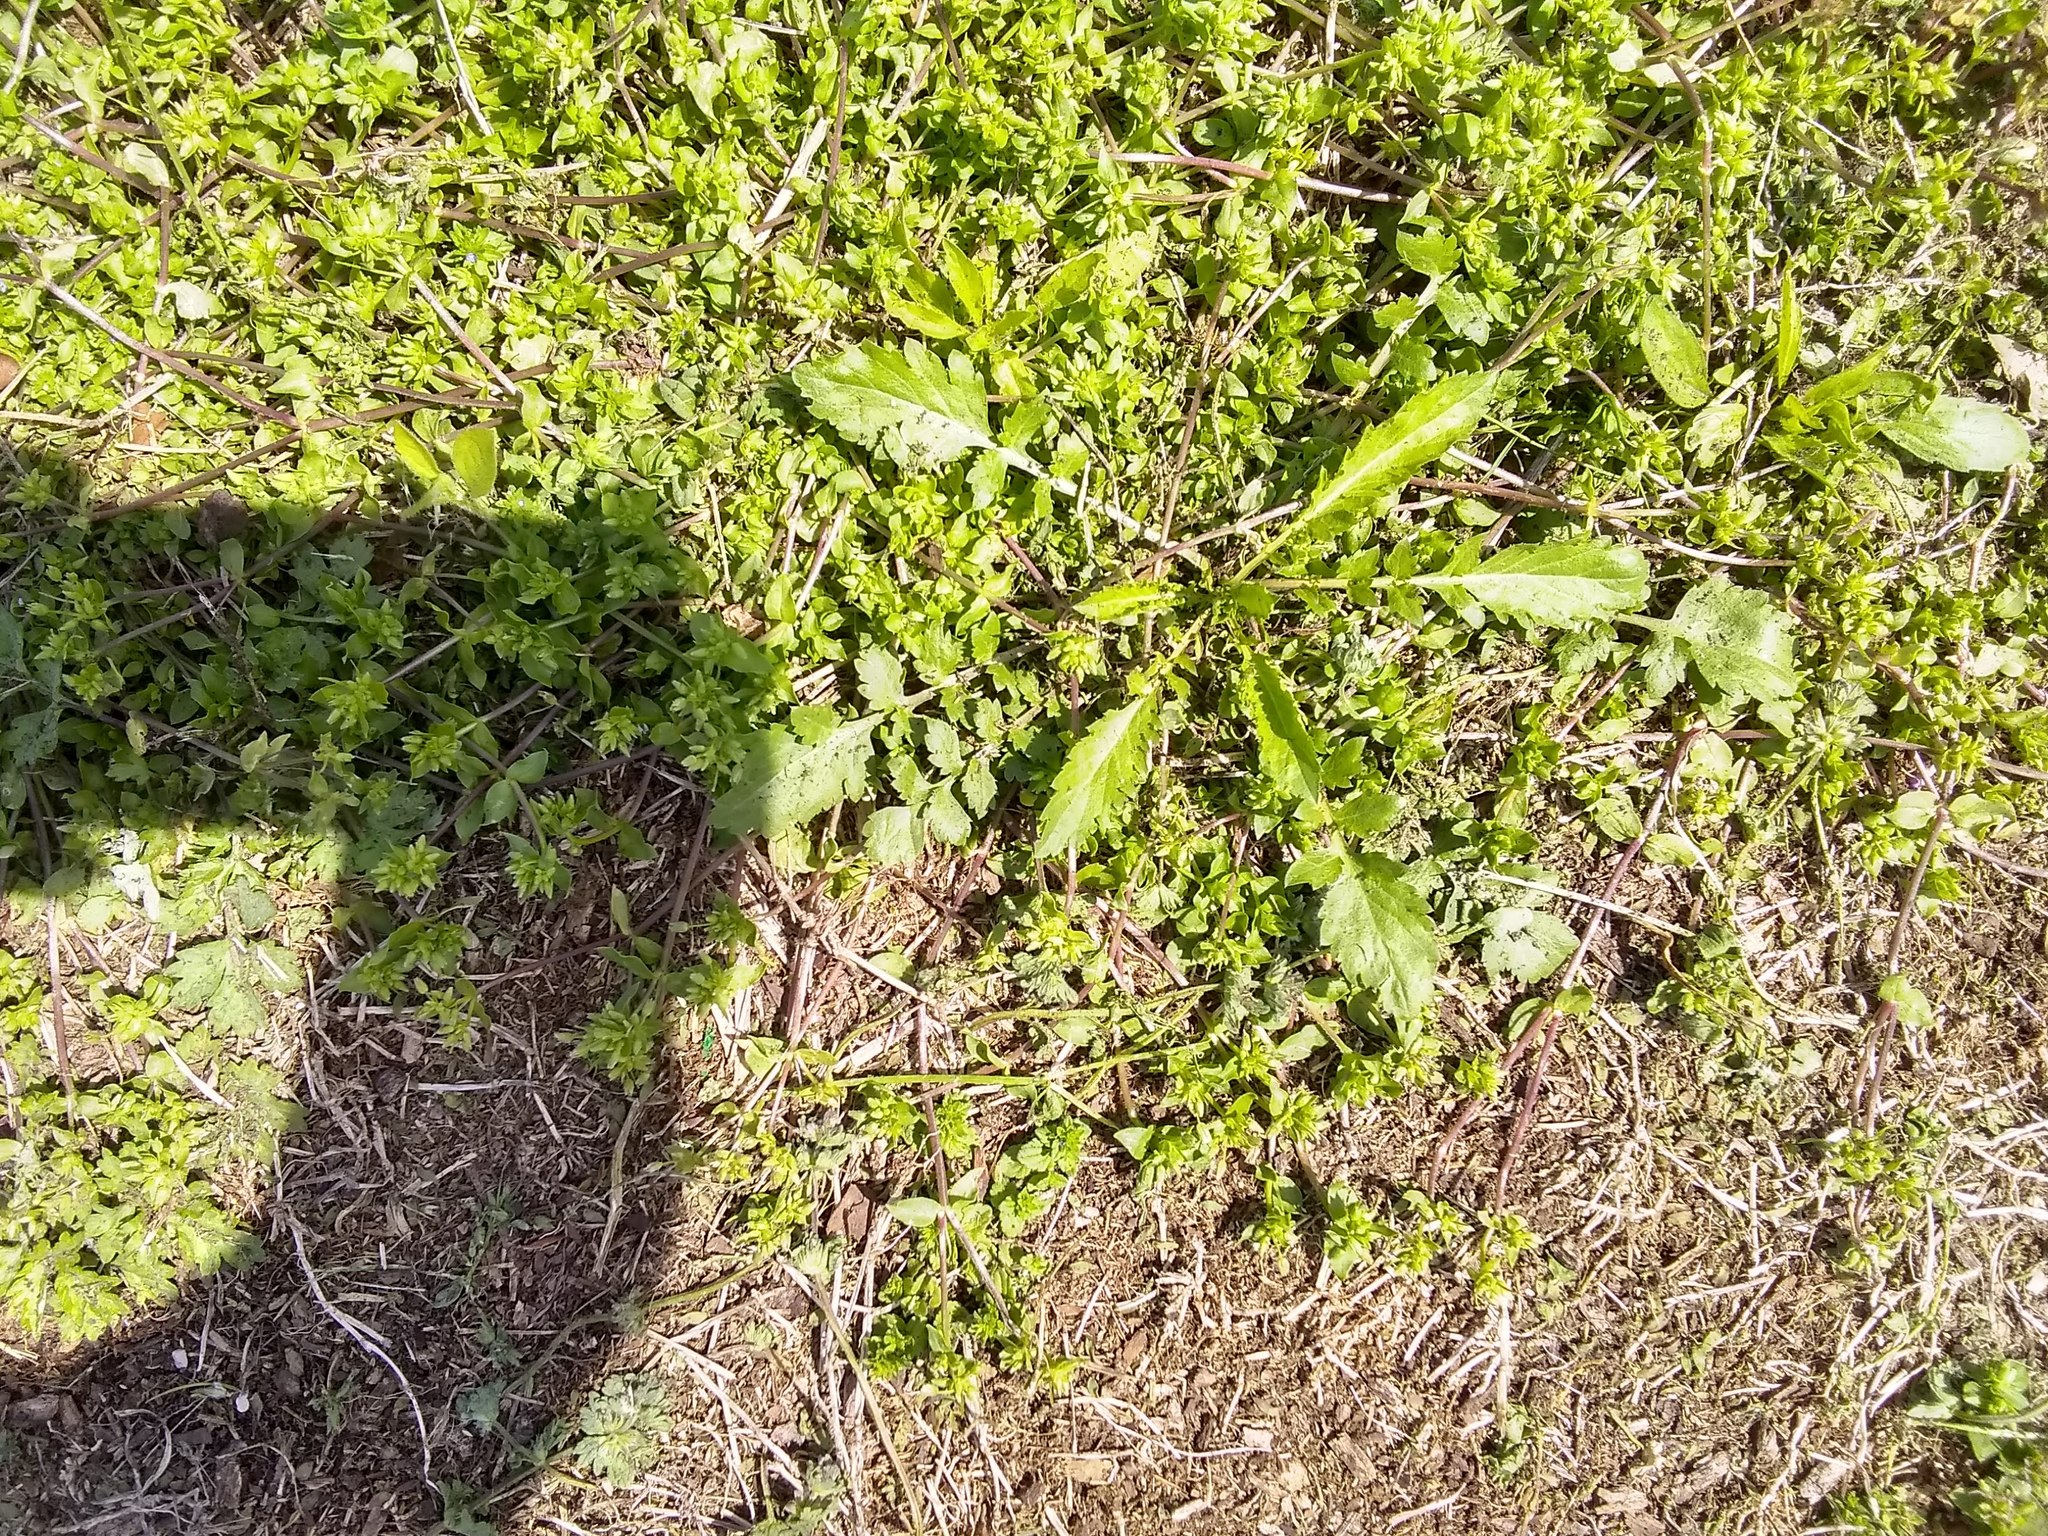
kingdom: Plantae
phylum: Tracheophyta
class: Magnoliopsida
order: Caryophyllales
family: Caryophyllaceae
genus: Stellaria
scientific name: Stellaria media
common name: Common chickweed
